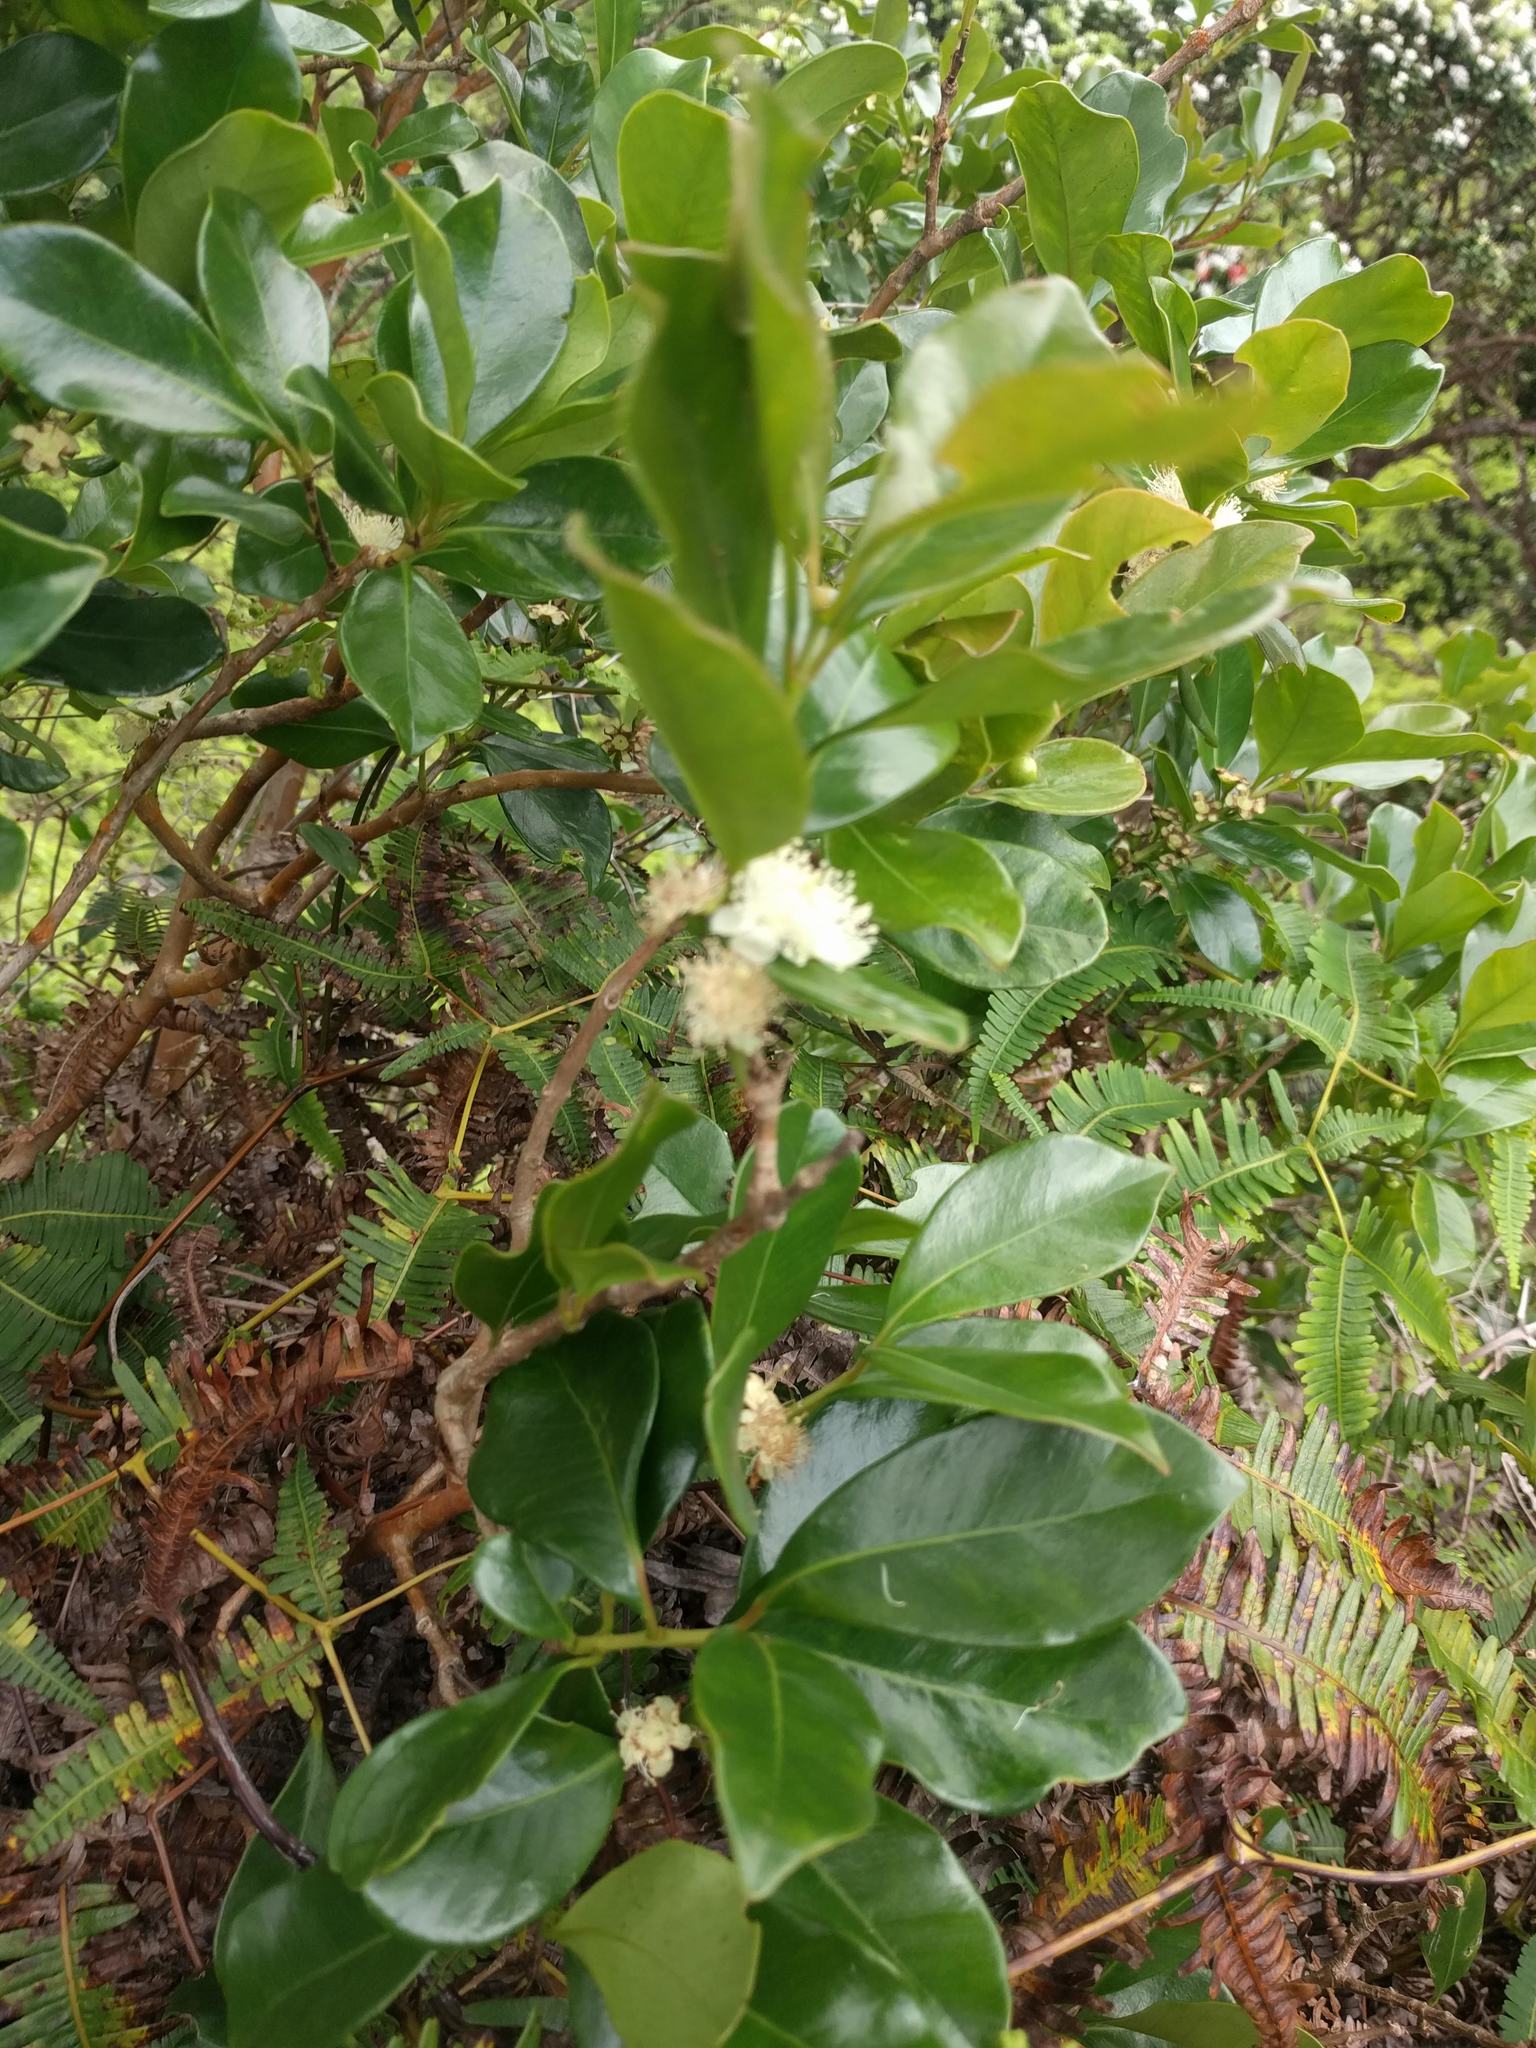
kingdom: Plantae
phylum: Tracheophyta
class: Magnoliopsida
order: Myrtales
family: Myrtaceae
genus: Psidium
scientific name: Psidium cattleianum
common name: Strawberry guava
